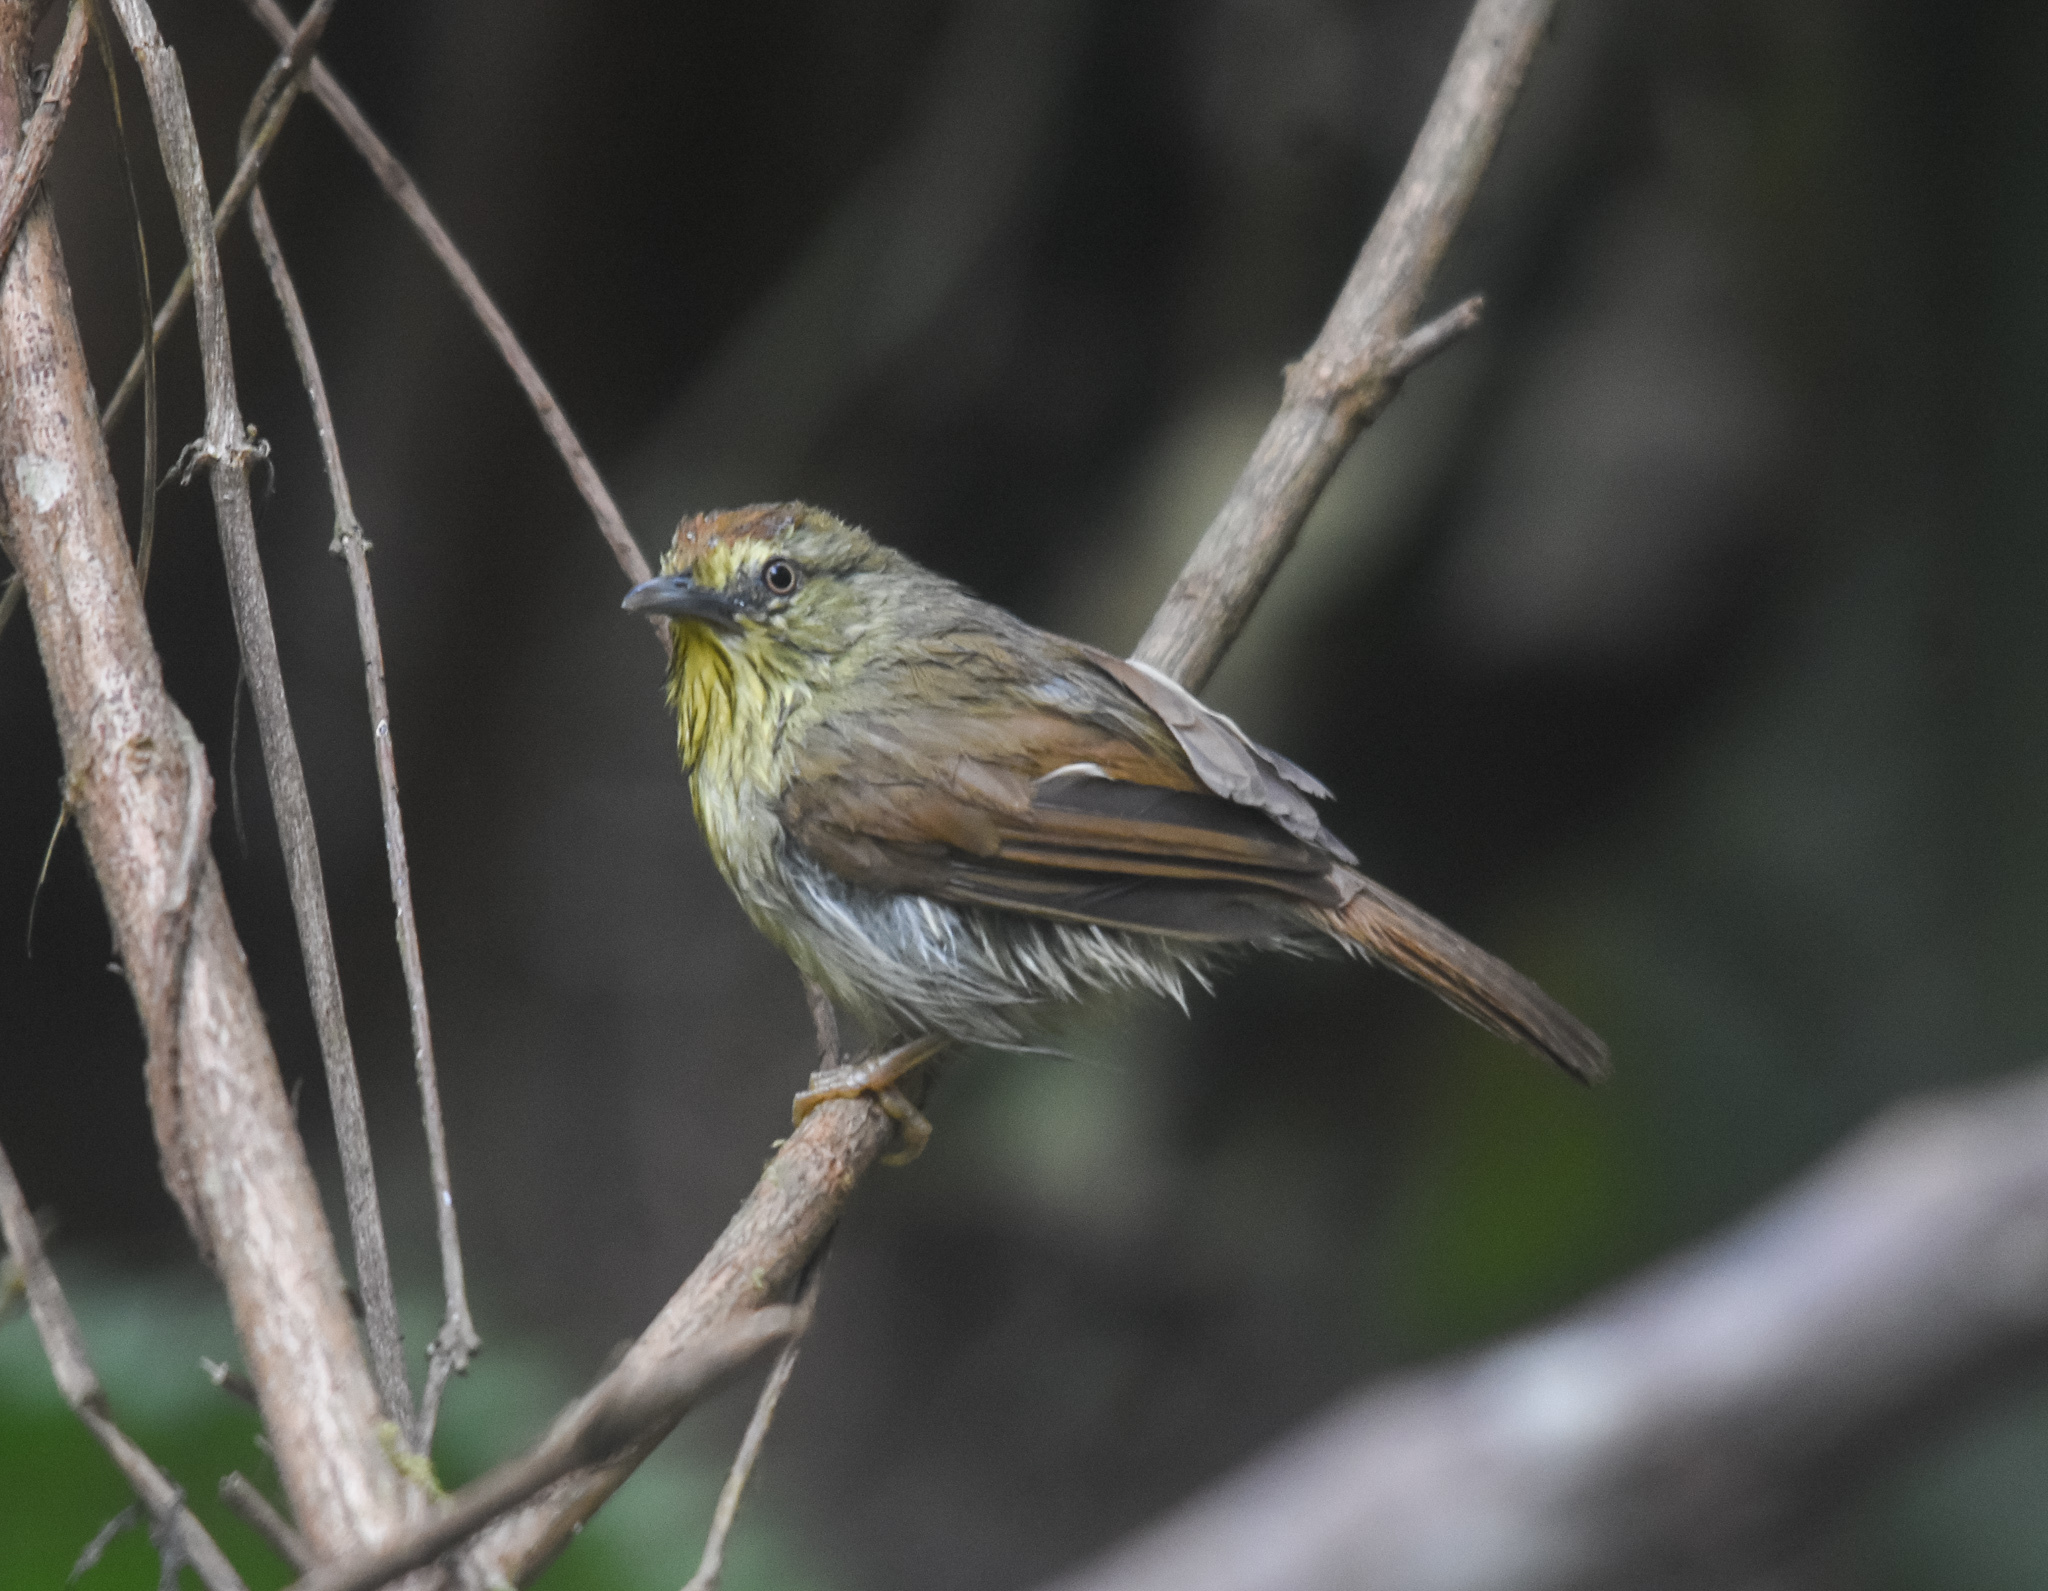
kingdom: Animalia
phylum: Chordata
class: Aves
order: Passeriformes
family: Timaliidae
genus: Macronus
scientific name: Macronus gularis
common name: Striped tit-babbler
